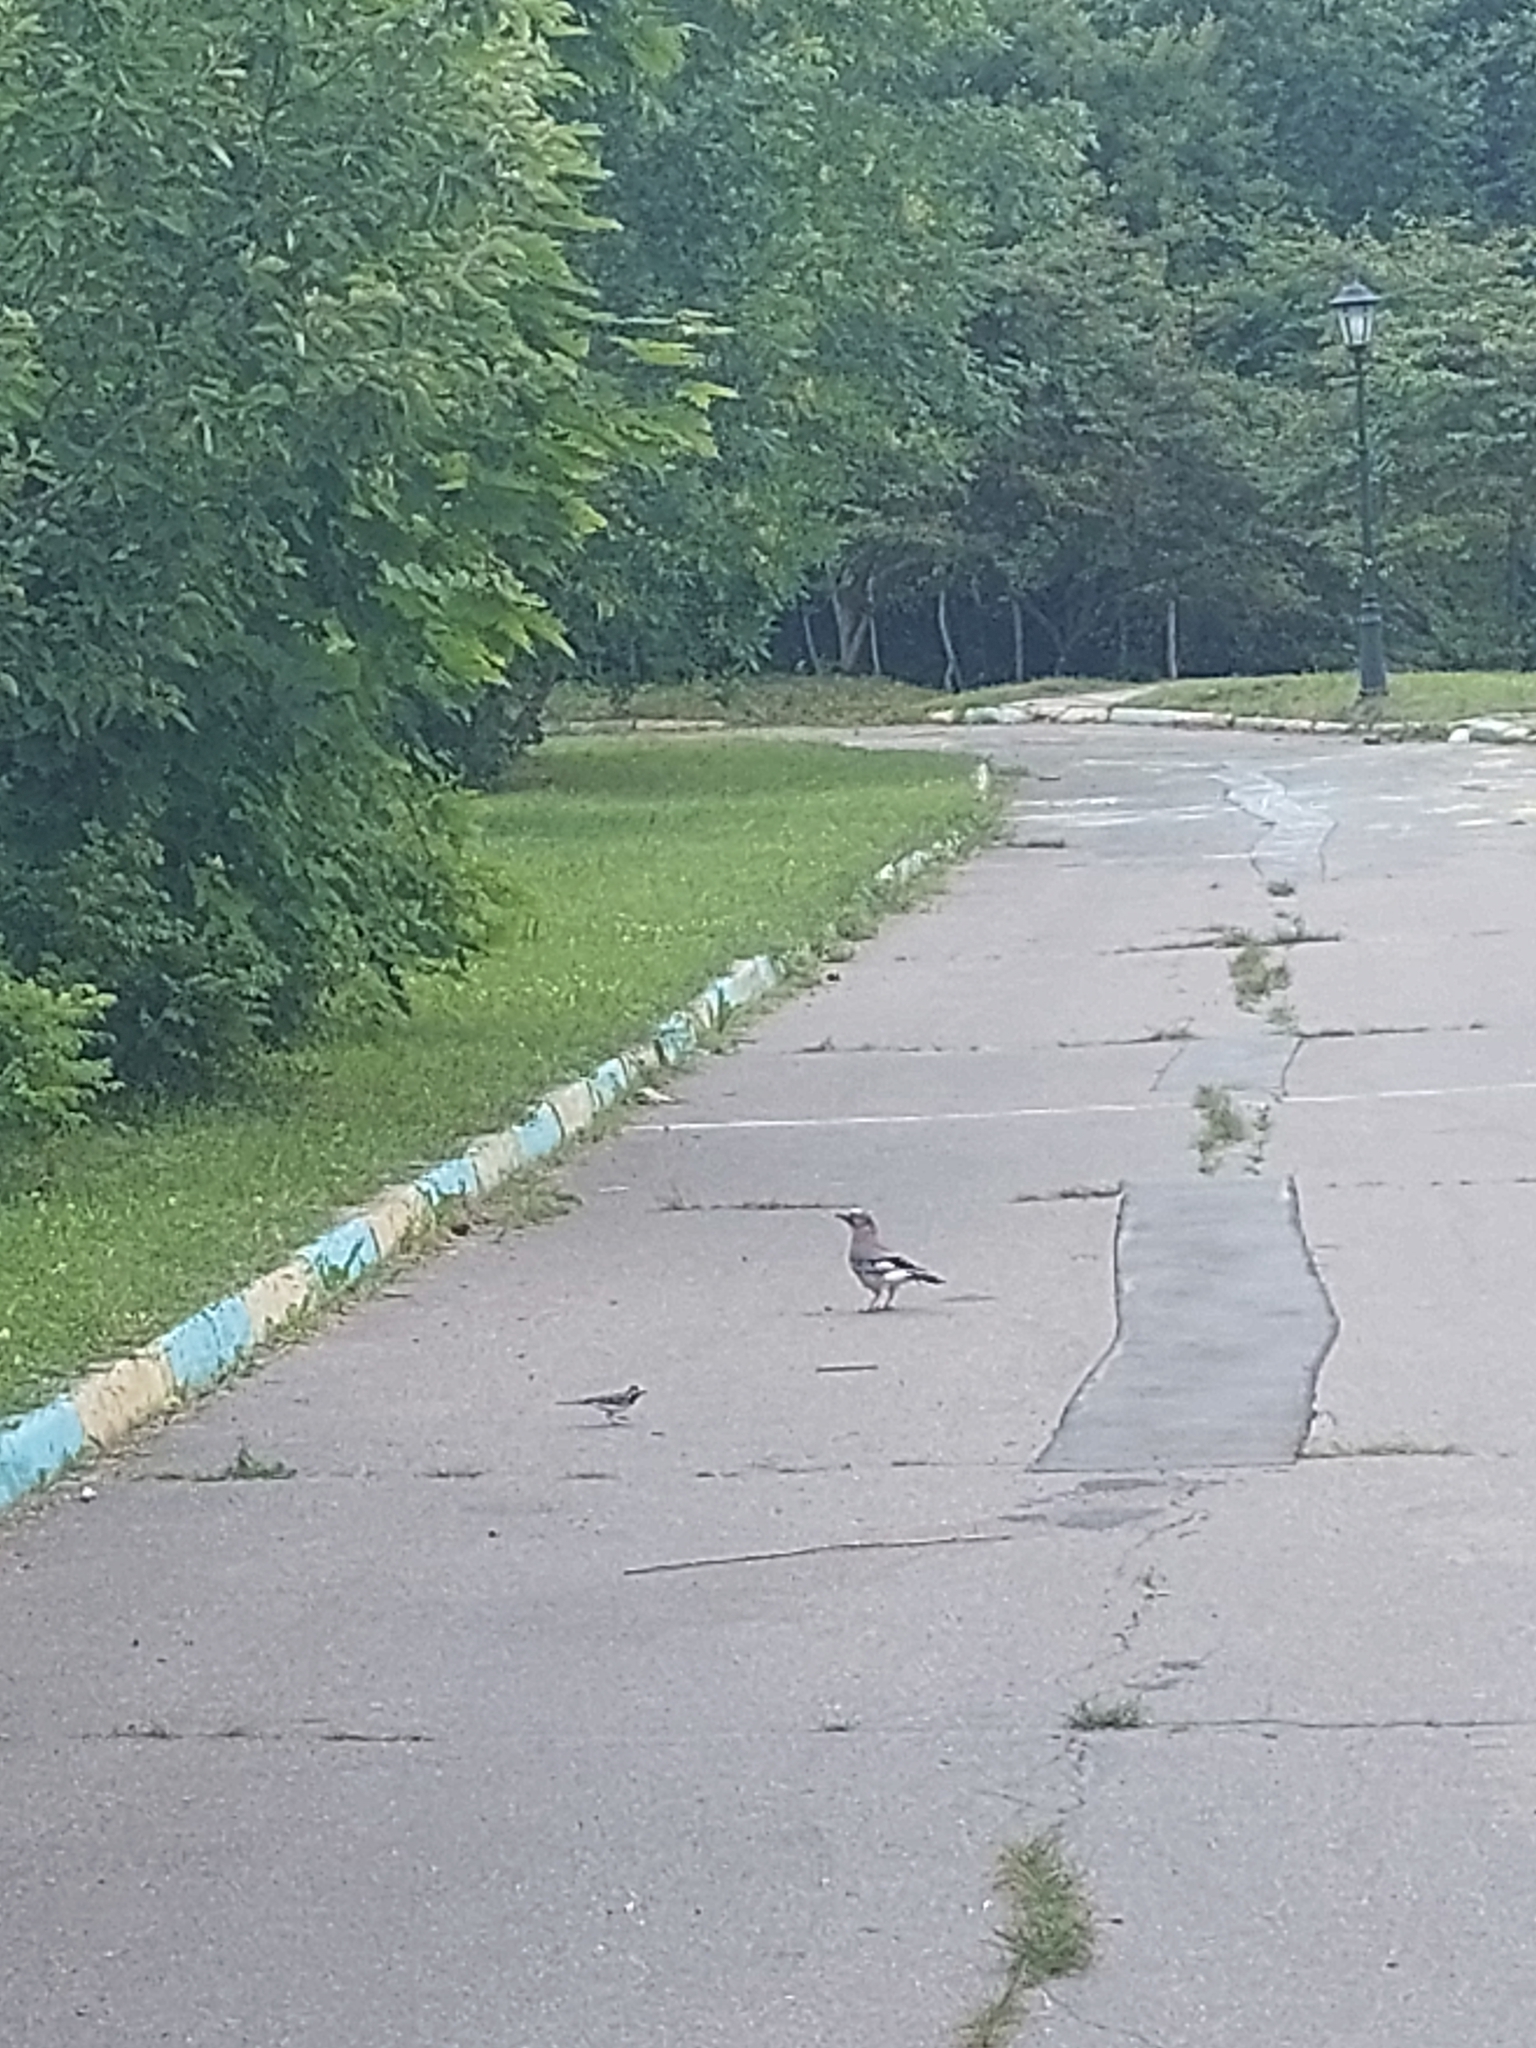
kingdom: Animalia
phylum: Chordata
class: Aves
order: Passeriformes
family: Corvidae
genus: Garrulus
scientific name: Garrulus glandarius
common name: Eurasian jay
